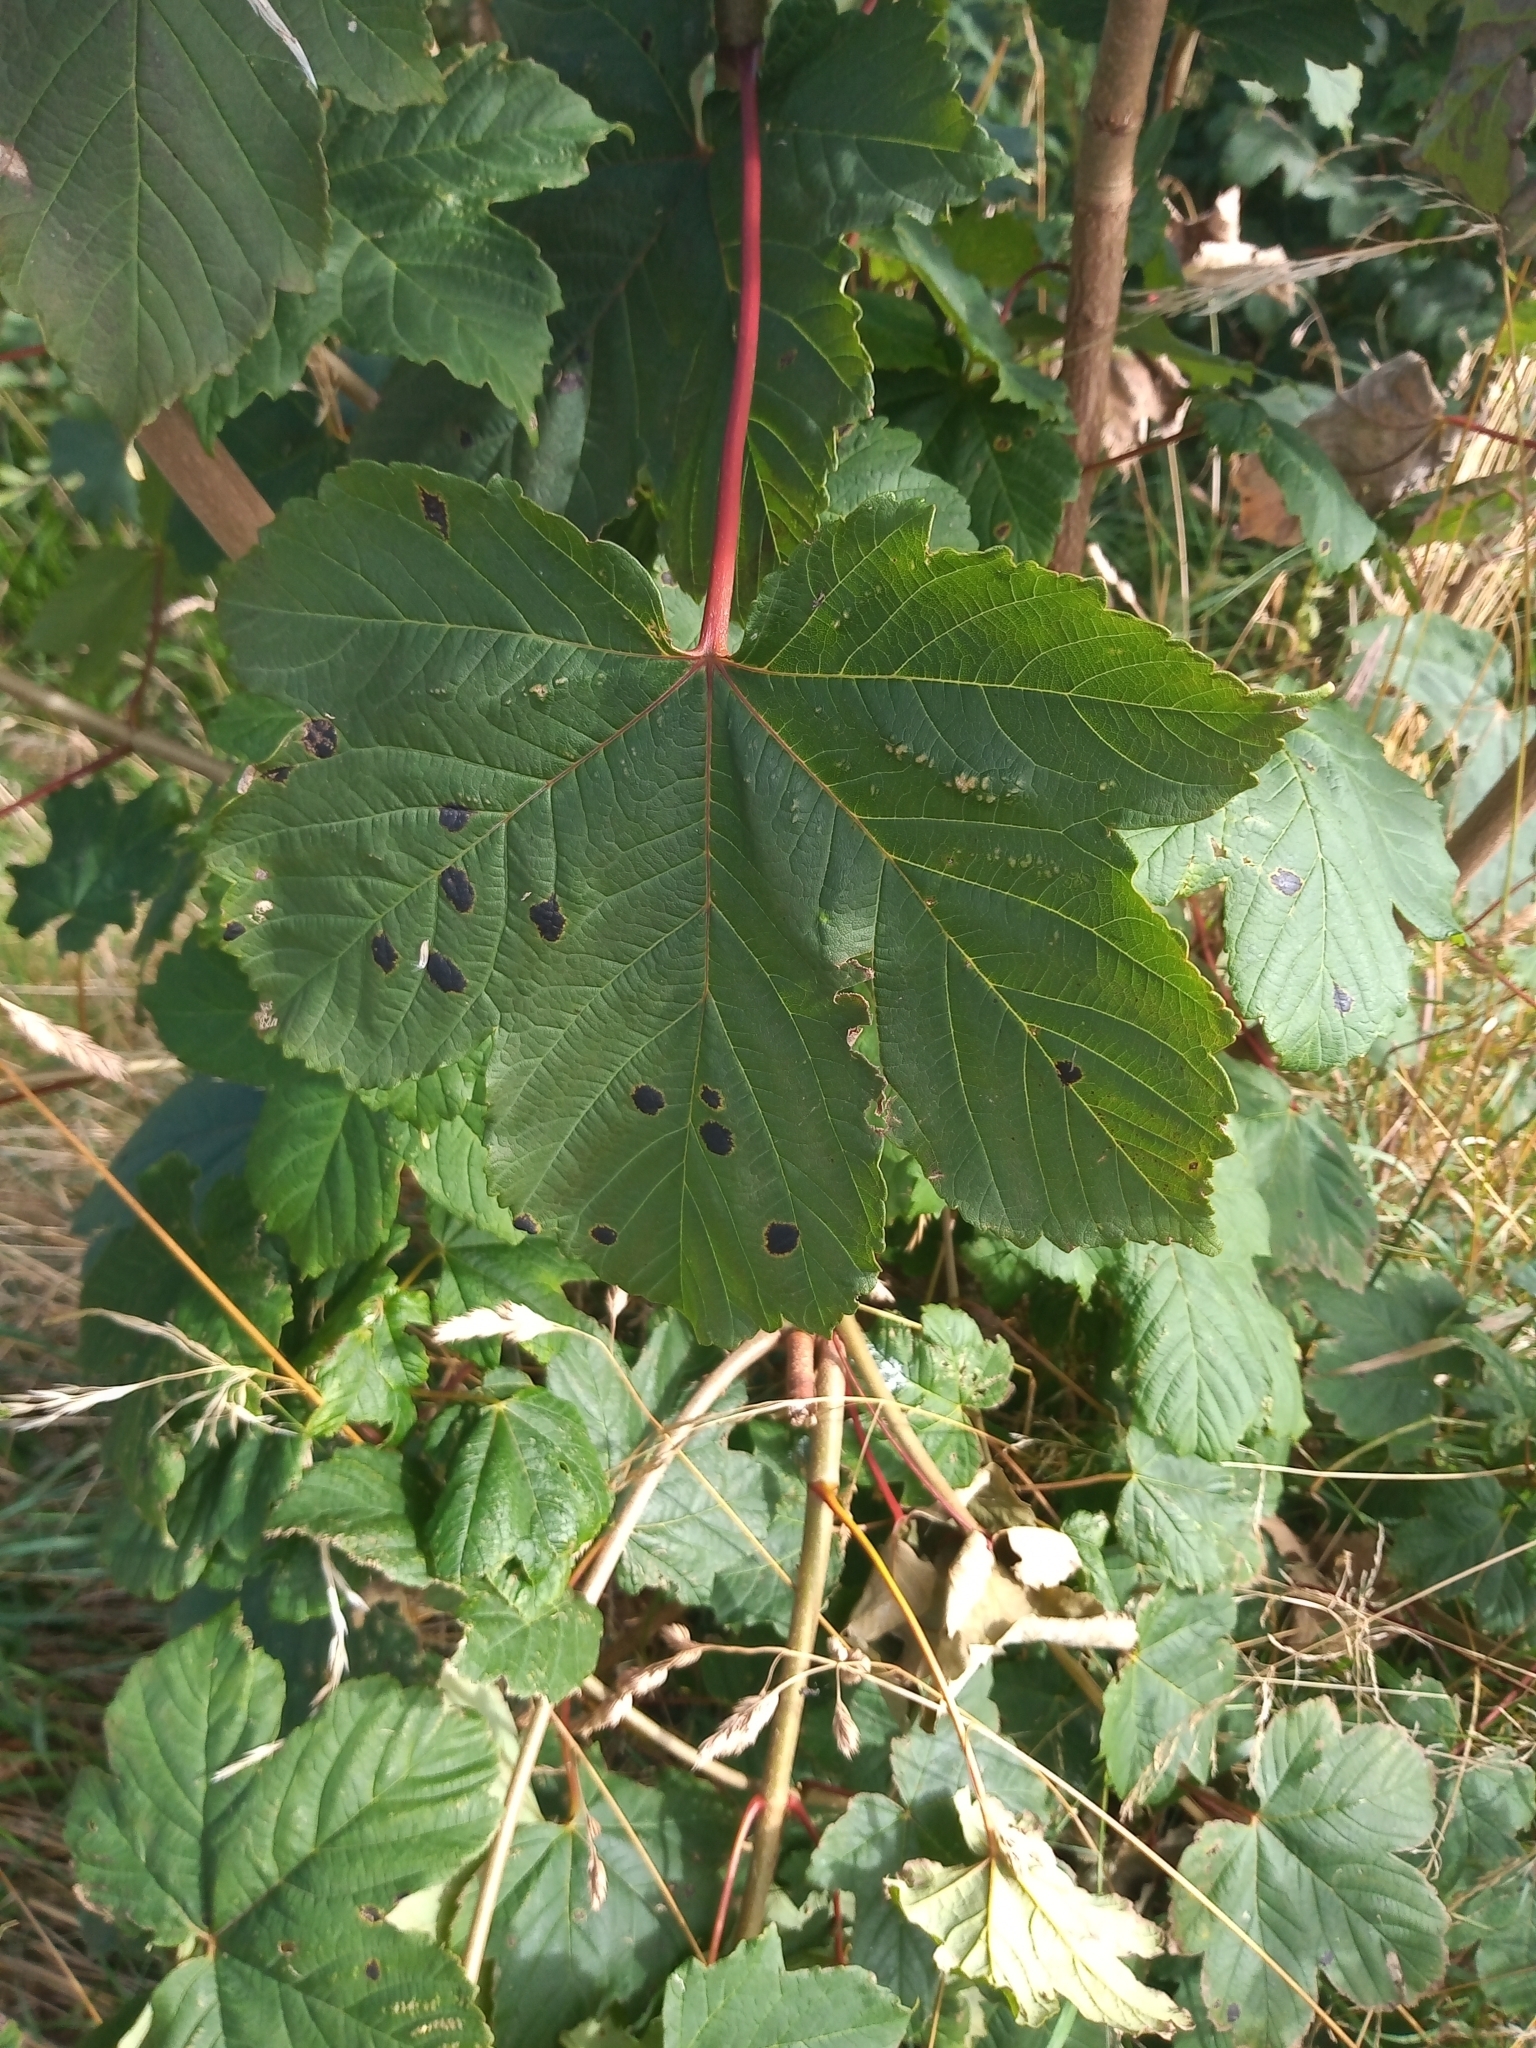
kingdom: Fungi
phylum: Ascomycota
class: Leotiomycetes
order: Rhytismatales
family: Rhytismataceae
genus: Rhytisma
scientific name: Rhytisma acerinum
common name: European tar spot
